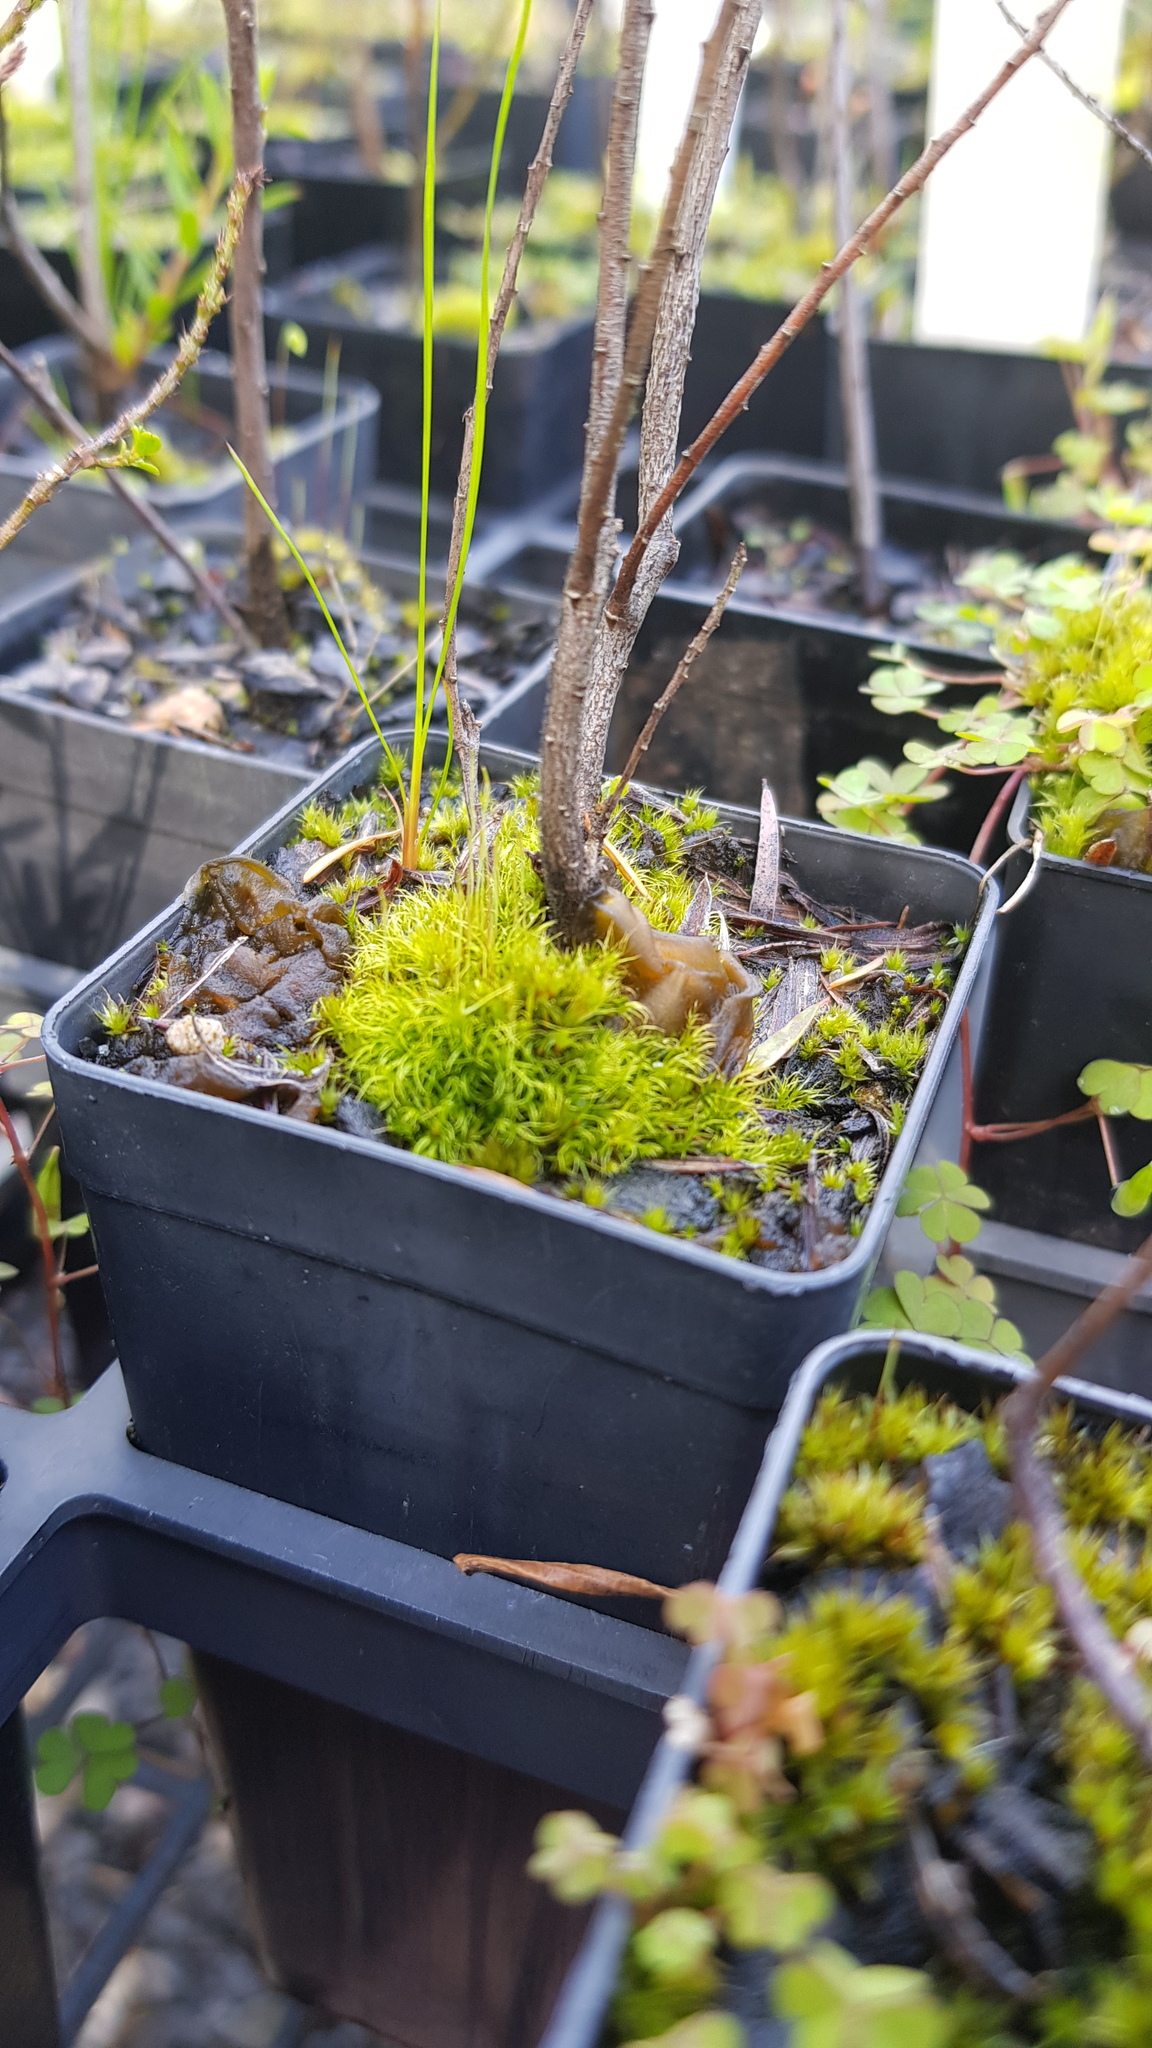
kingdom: Bacteria
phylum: Cyanobacteria
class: Cyanobacteriia
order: Cyanobacteriales
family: Nostocaceae
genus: Nostoc
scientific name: Nostoc commune
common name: Star jelly
